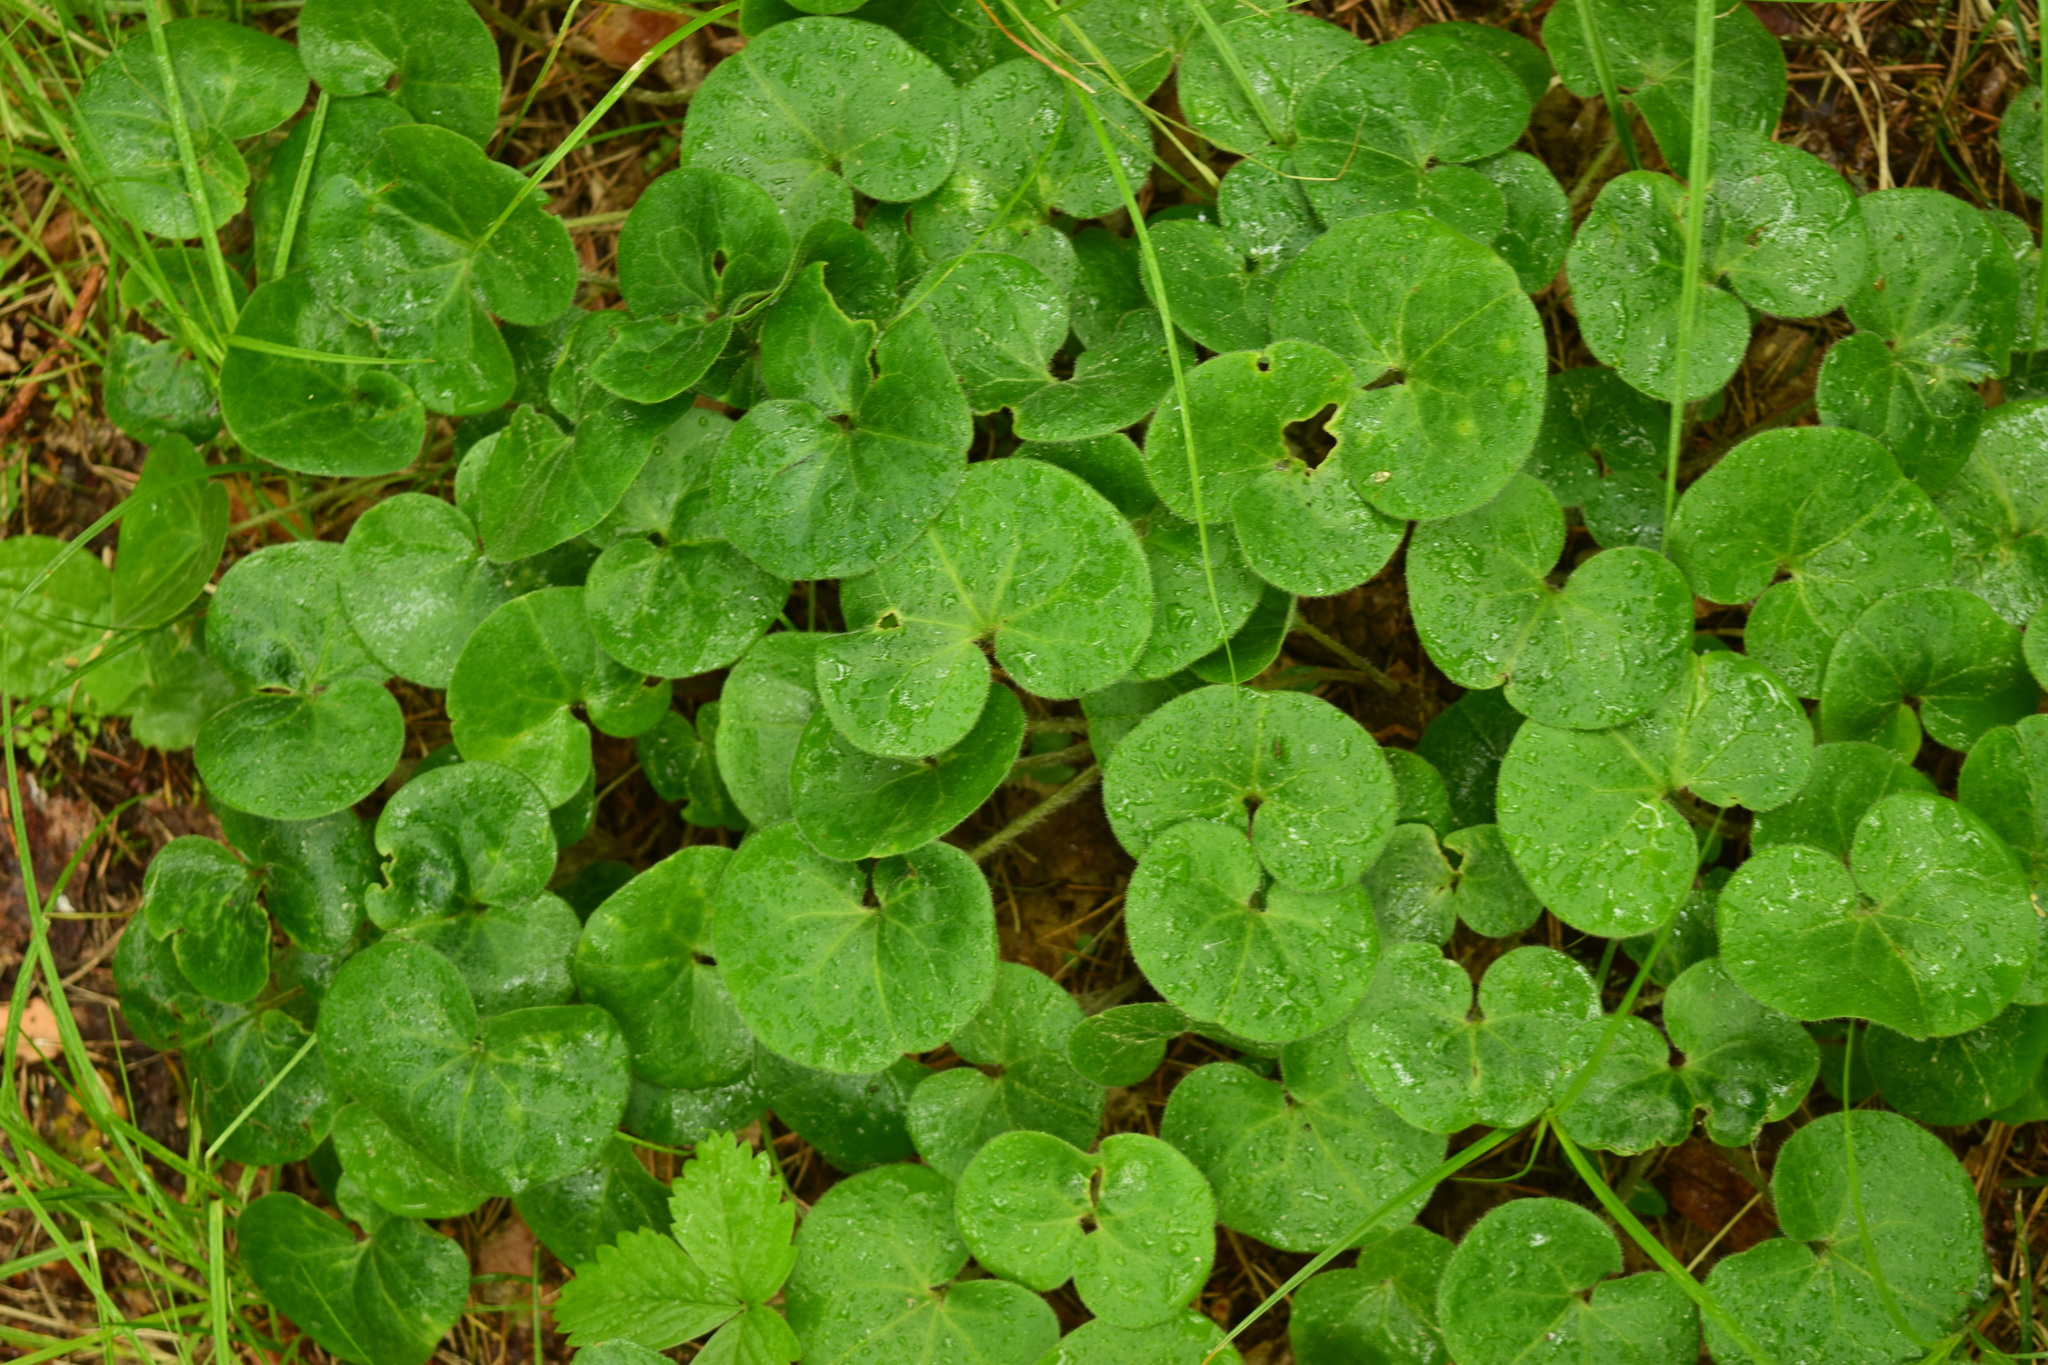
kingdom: Plantae
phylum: Tracheophyta
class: Magnoliopsida
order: Piperales
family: Aristolochiaceae
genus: Asarum
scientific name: Asarum europaeum
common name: Asarabacca
